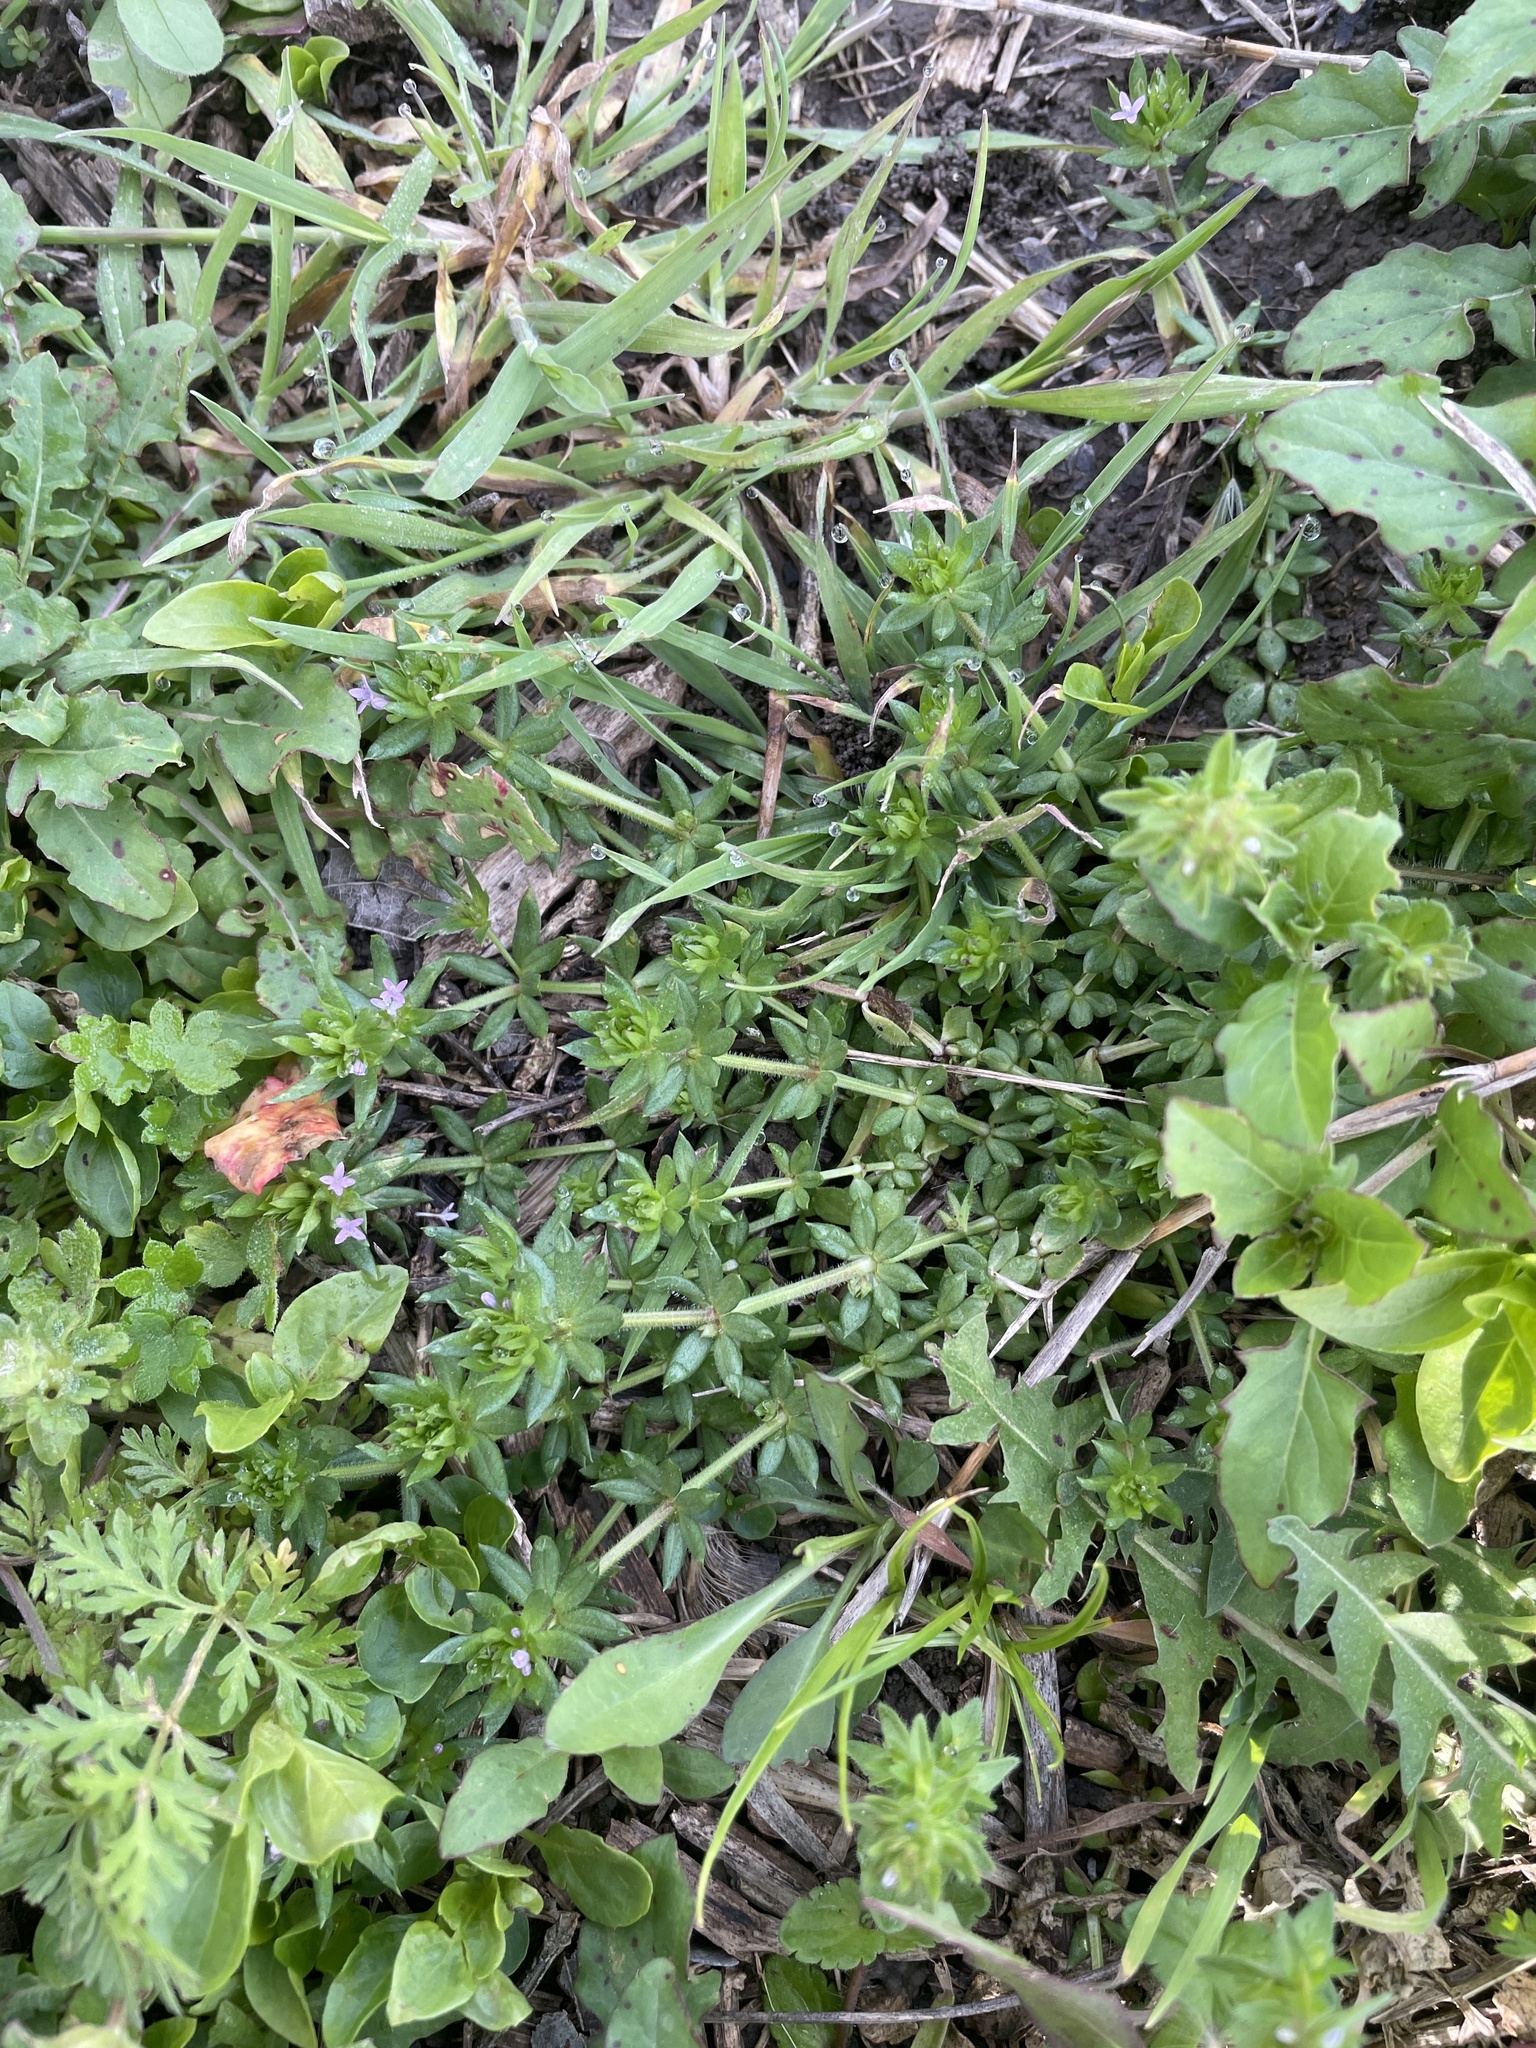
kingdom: Plantae
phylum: Tracheophyta
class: Magnoliopsida
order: Gentianales
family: Rubiaceae
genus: Sherardia
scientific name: Sherardia arvensis
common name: Field madder
